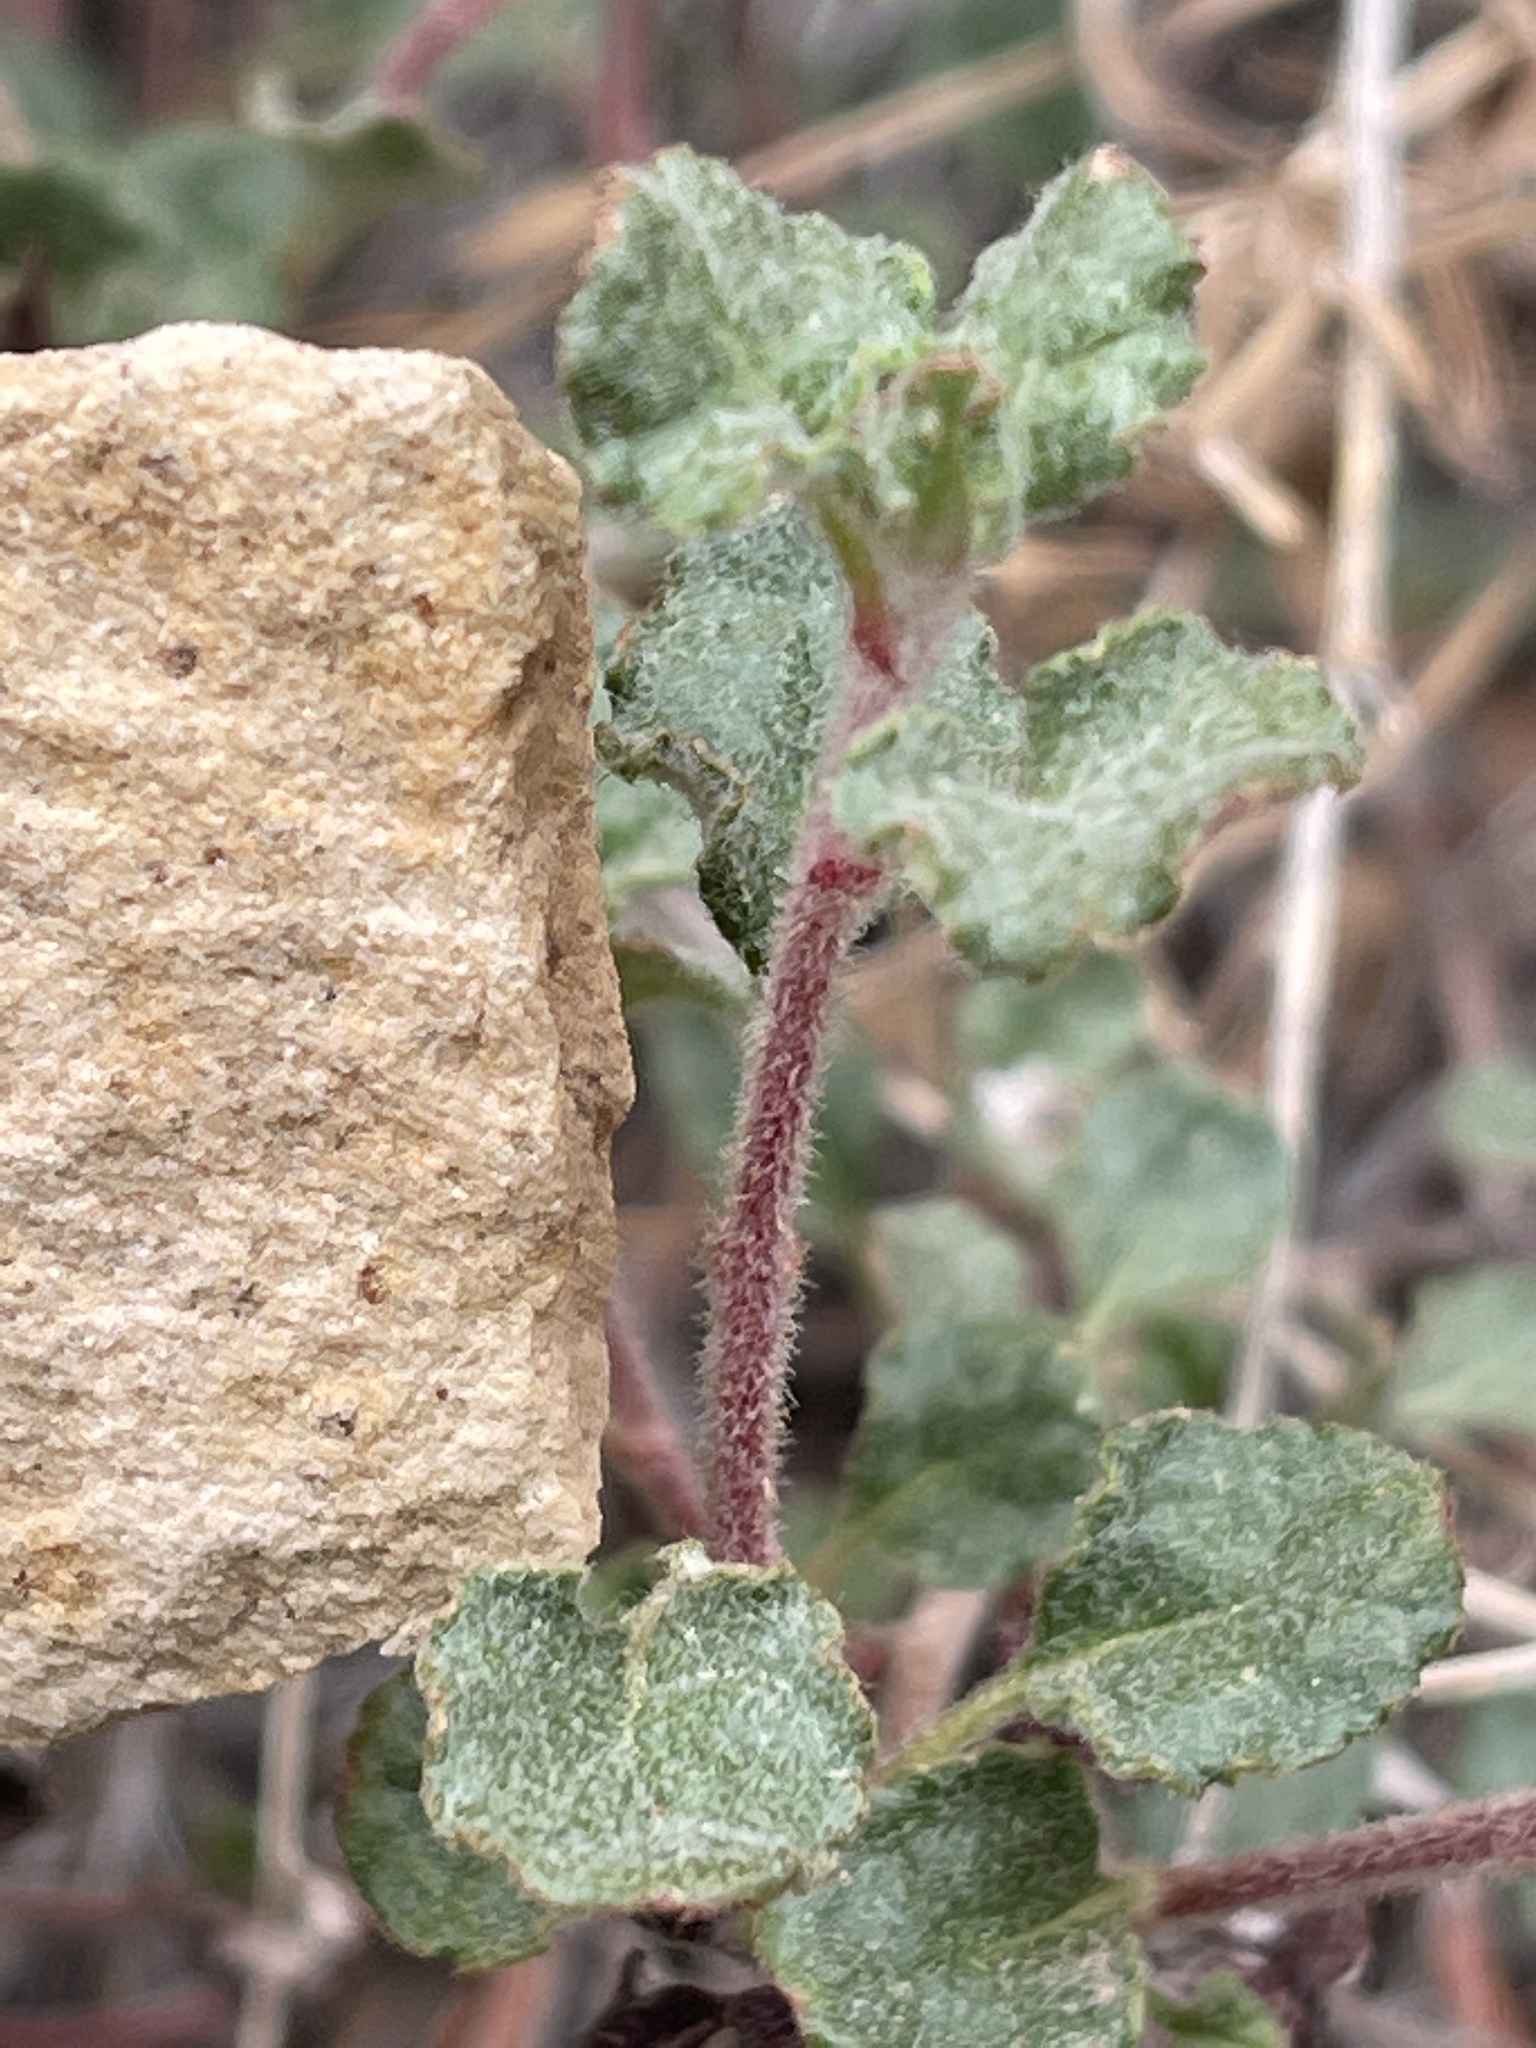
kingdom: Plantae
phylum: Tracheophyta
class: Magnoliopsida
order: Caryophyllales
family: Polygonaceae
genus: Eriogonum
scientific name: Eriogonum corymbosum
